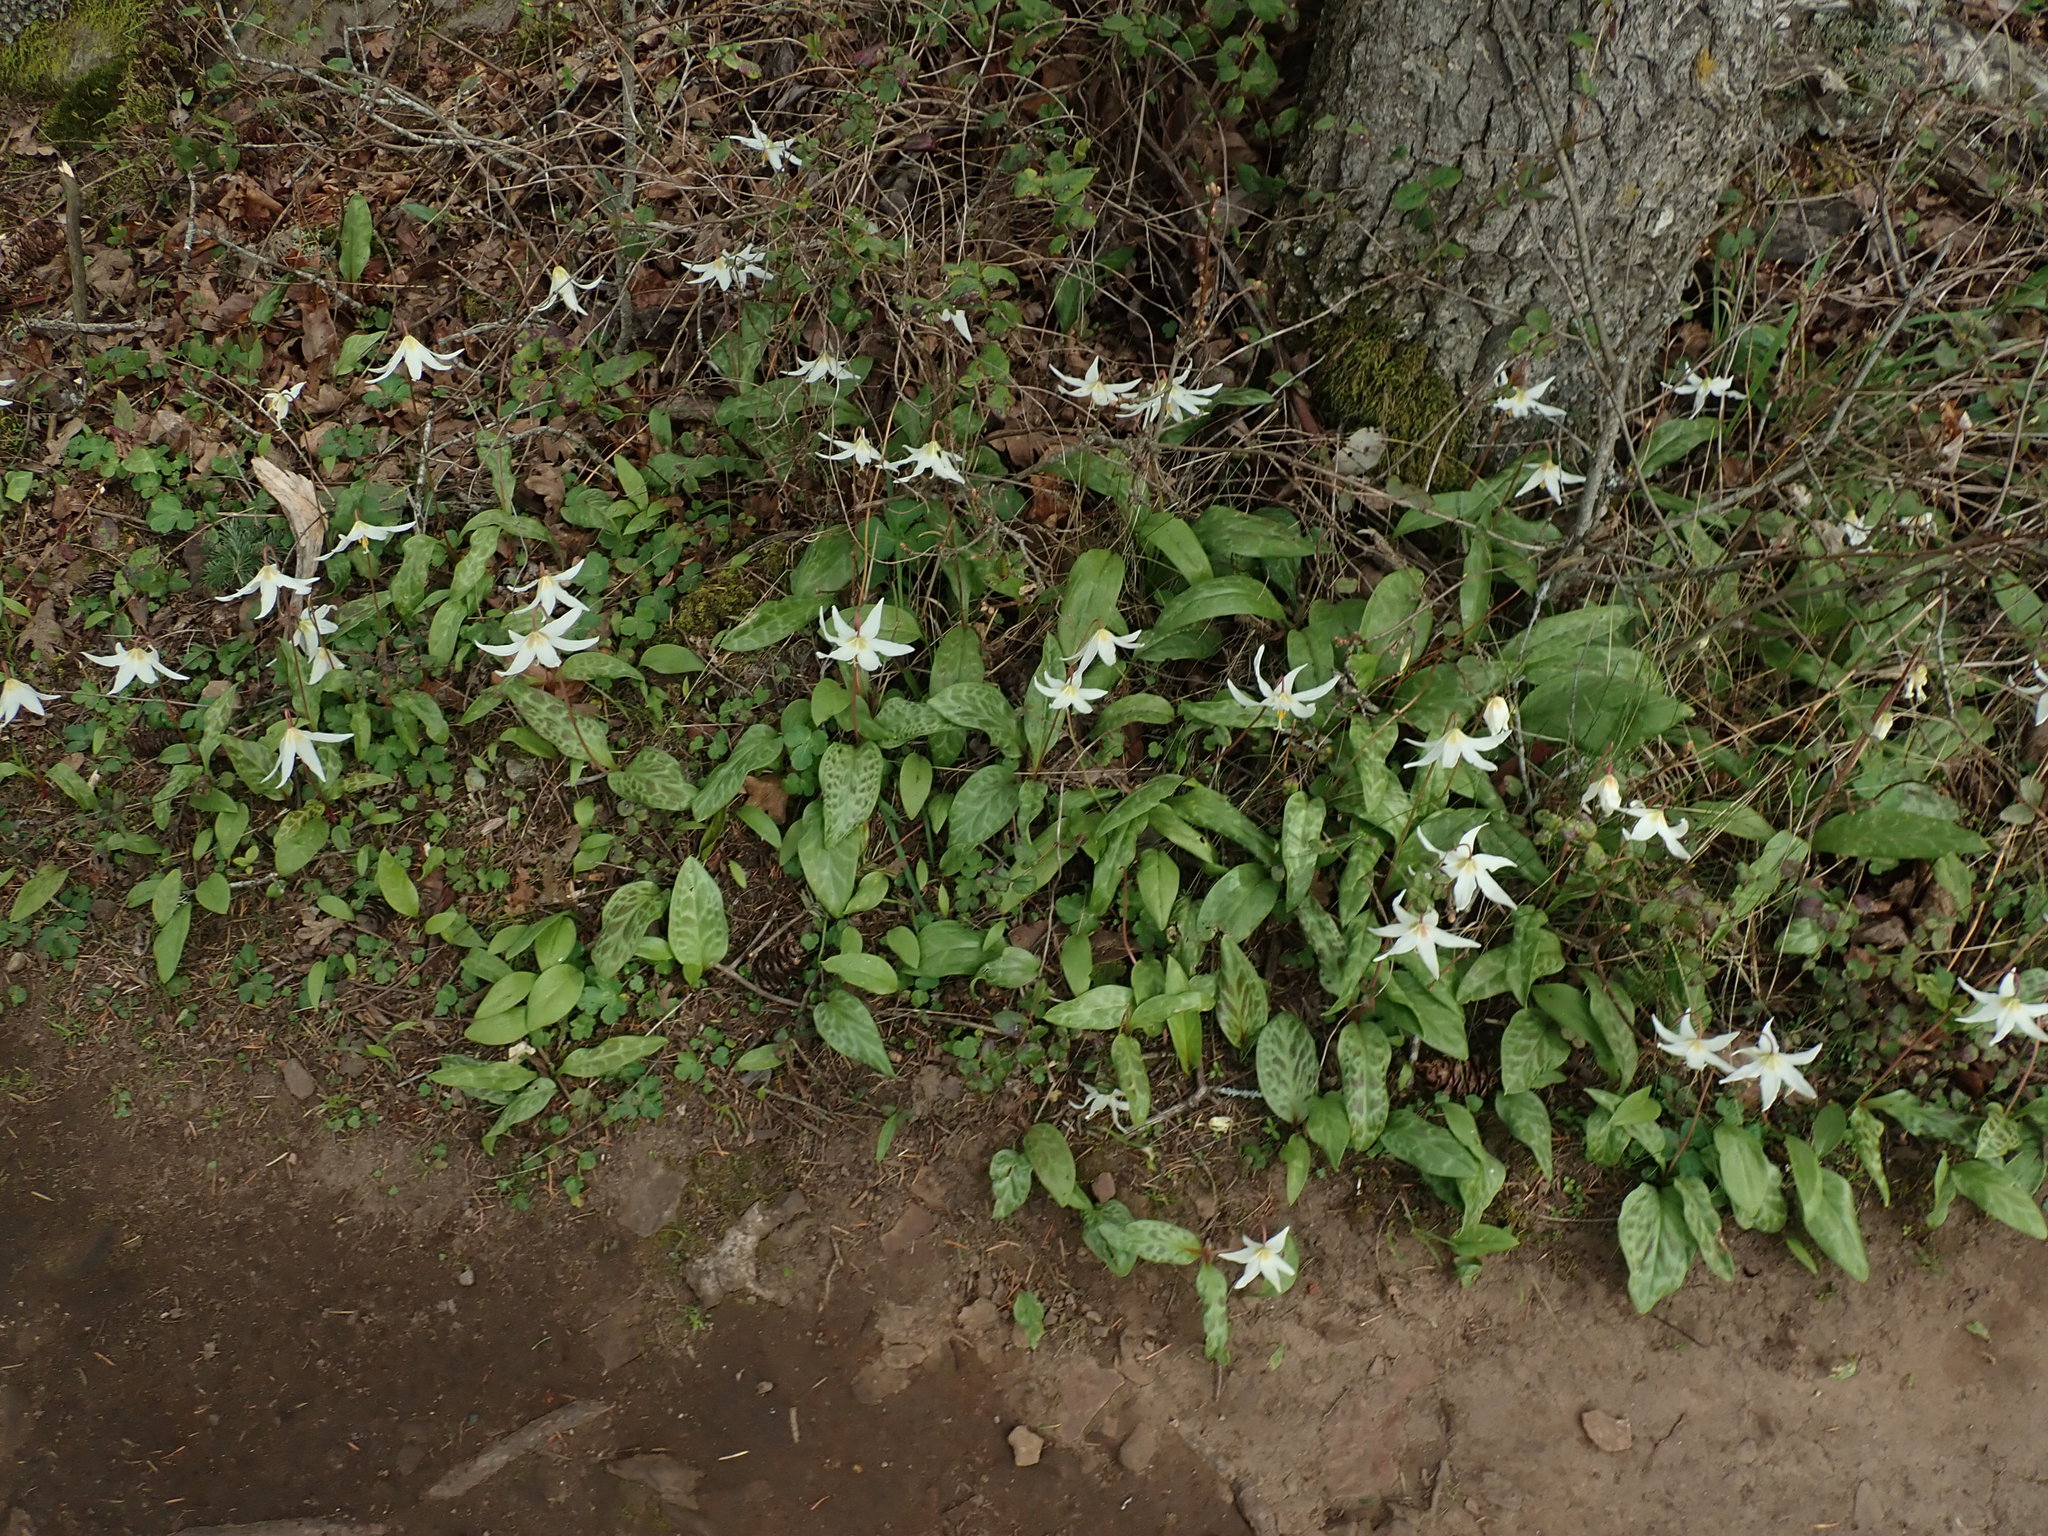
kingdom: Plantae
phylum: Tracheophyta
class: Liliopsida
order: Liliales
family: Liliaceae
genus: Erythronium
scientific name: Erythronium oregonum
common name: Giant adder's-tongue
